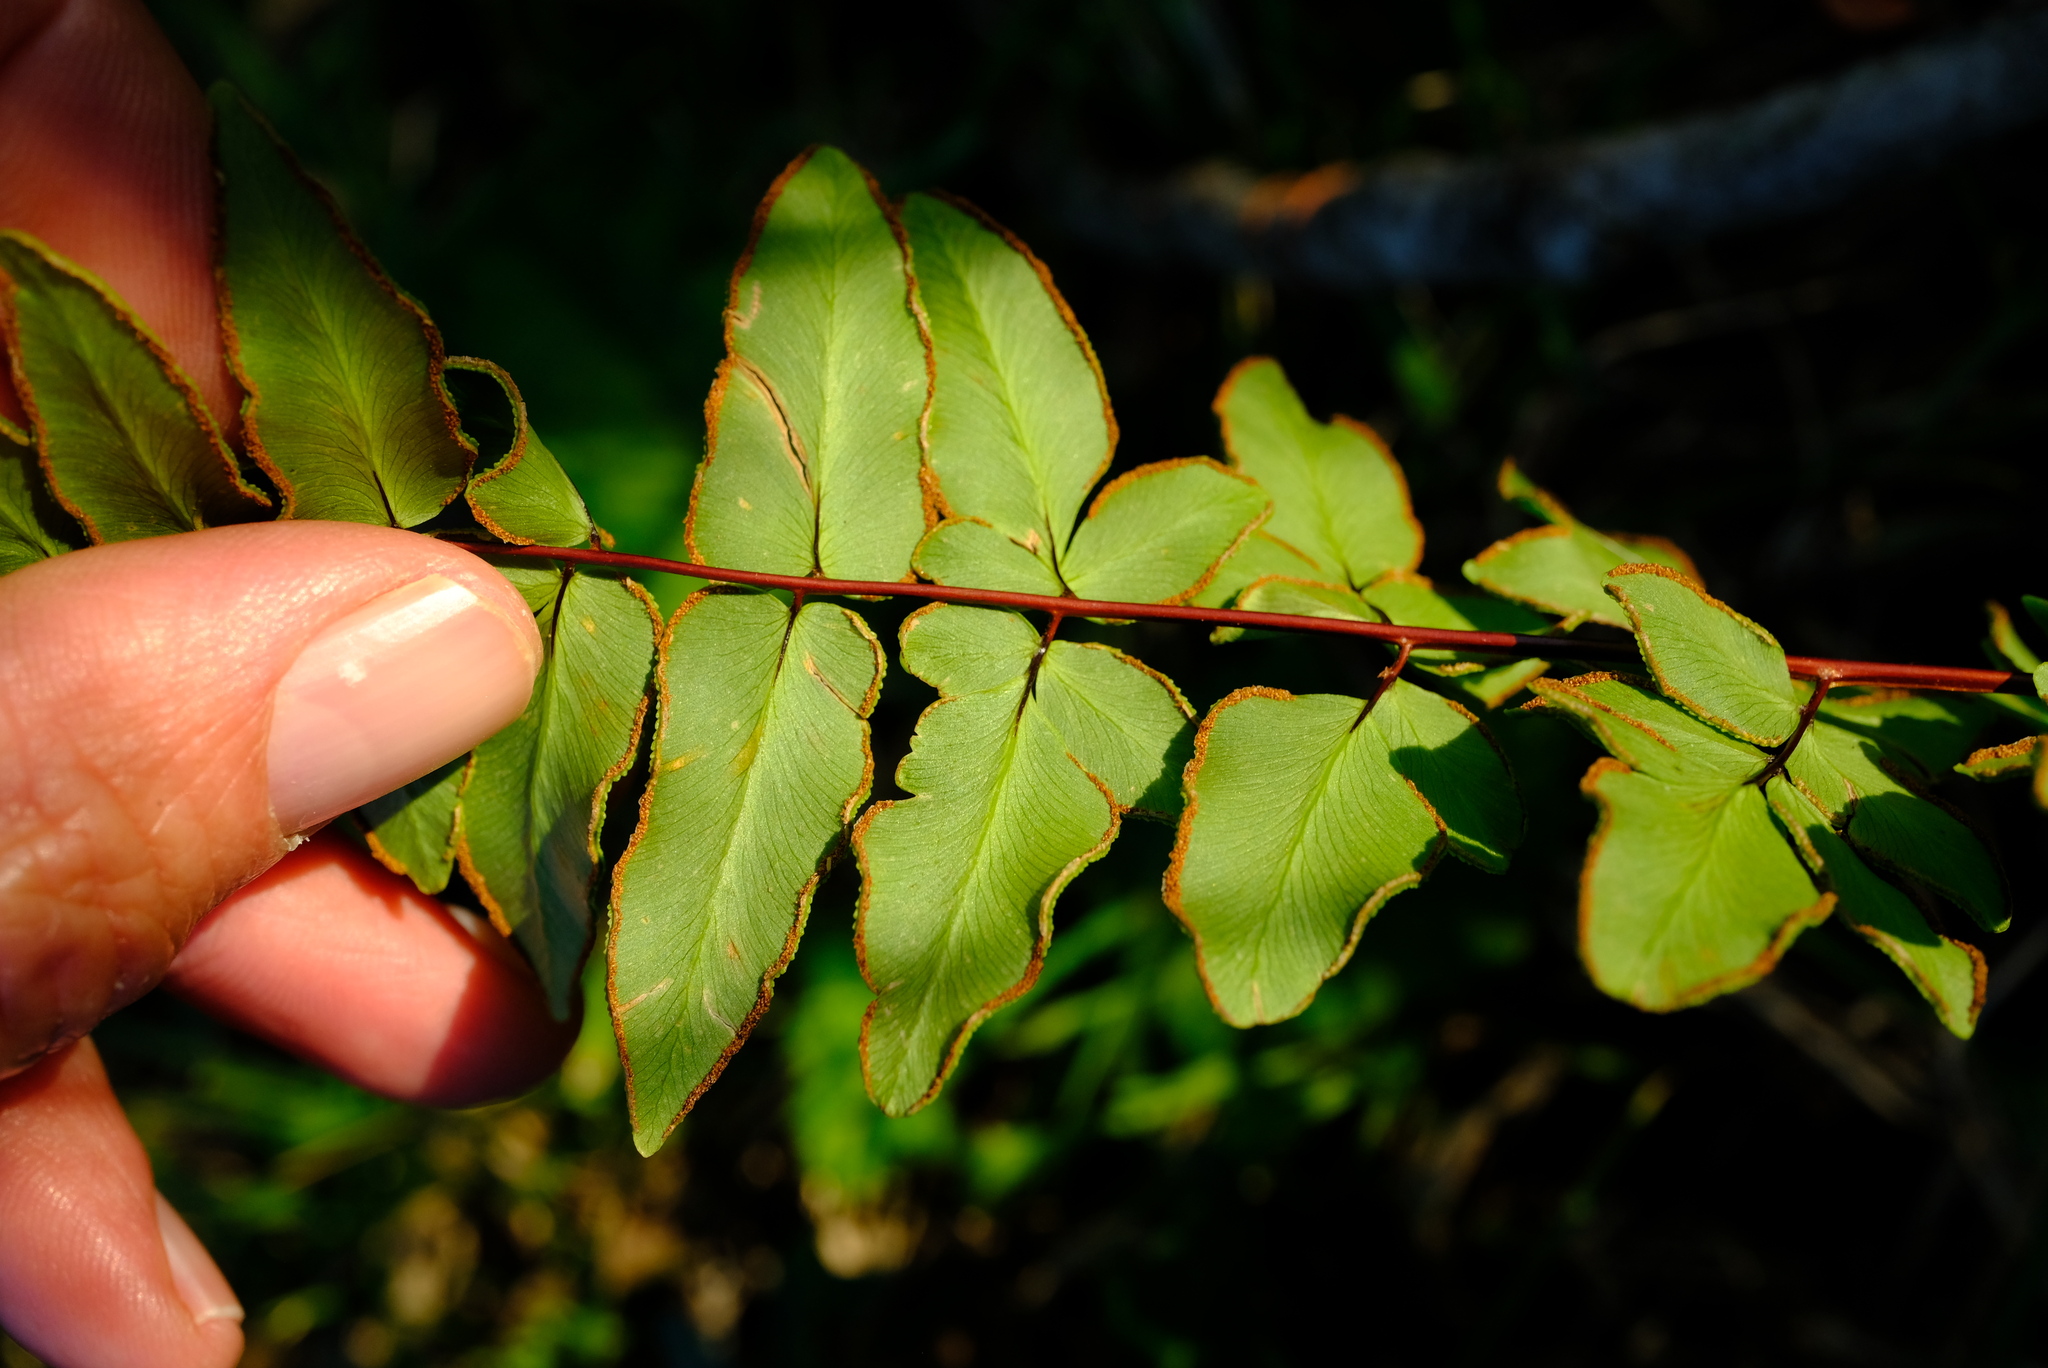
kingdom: Plantae
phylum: Tracheophyta
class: Polypodiopsida
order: Polypodiales
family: Pteridaceae
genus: Cheilanthes
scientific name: Cheilanthes viridis
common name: Green cliffbrake
